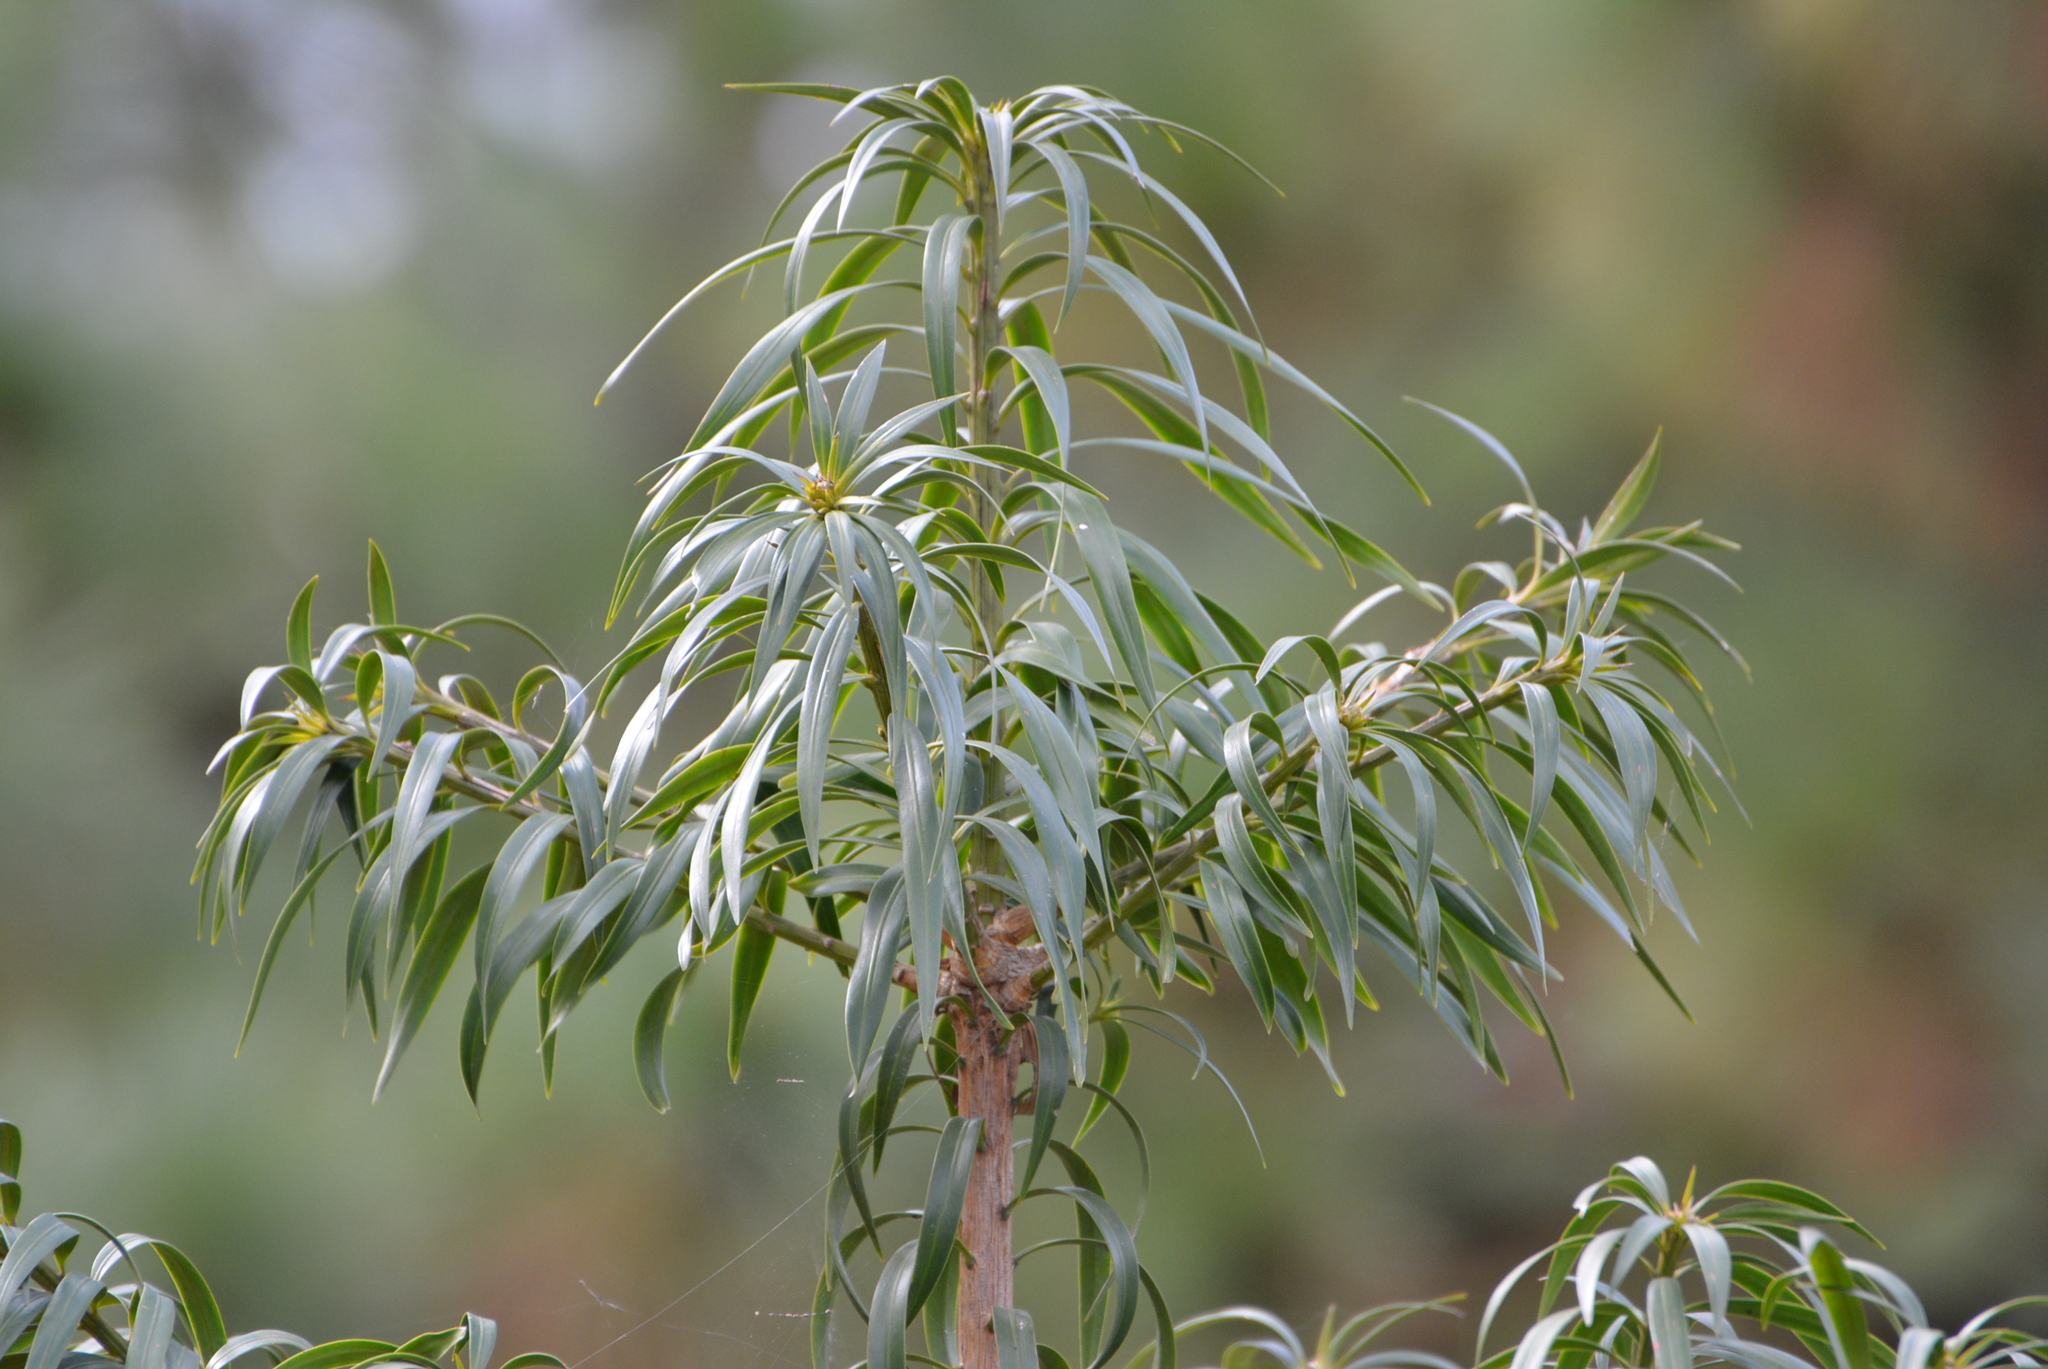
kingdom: Plantae
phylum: Tracheophyta
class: Pinopsida
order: Pinales
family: Podocarpaceae
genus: Podocarpus
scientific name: Podocarpus matudae
